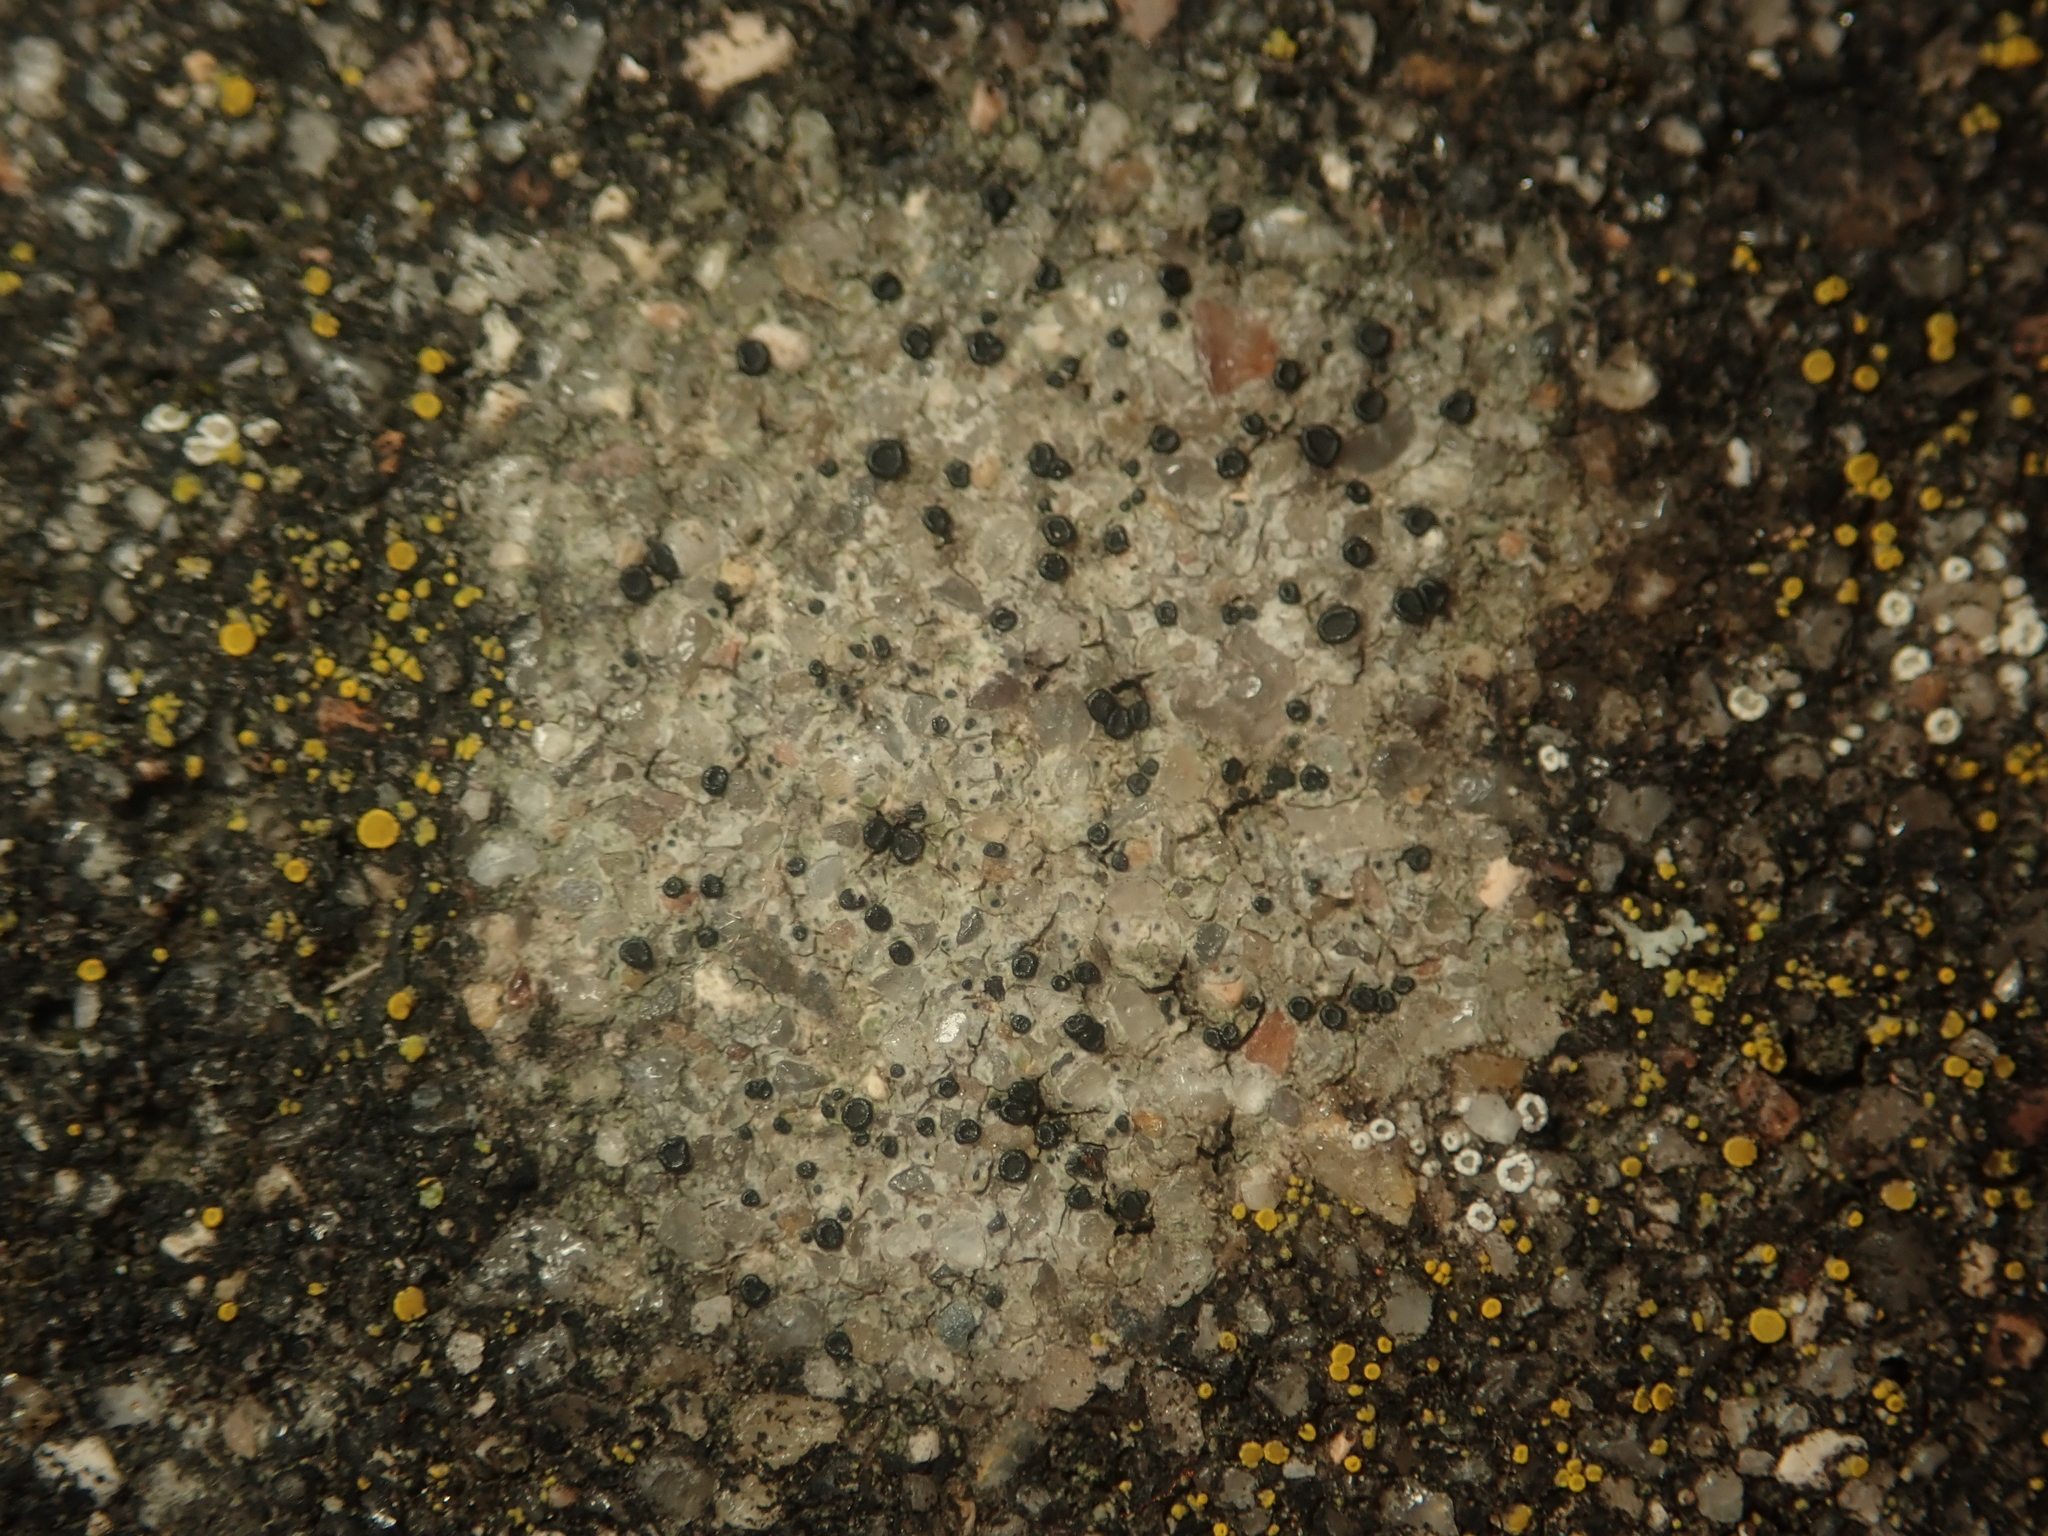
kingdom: Fungi
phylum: Ascomycota
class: Lecanoromycetes
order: Lecanorales
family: Lecanoraceae
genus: Lecidella
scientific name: Lecidella stigmatea
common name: Limestone disc lichen
